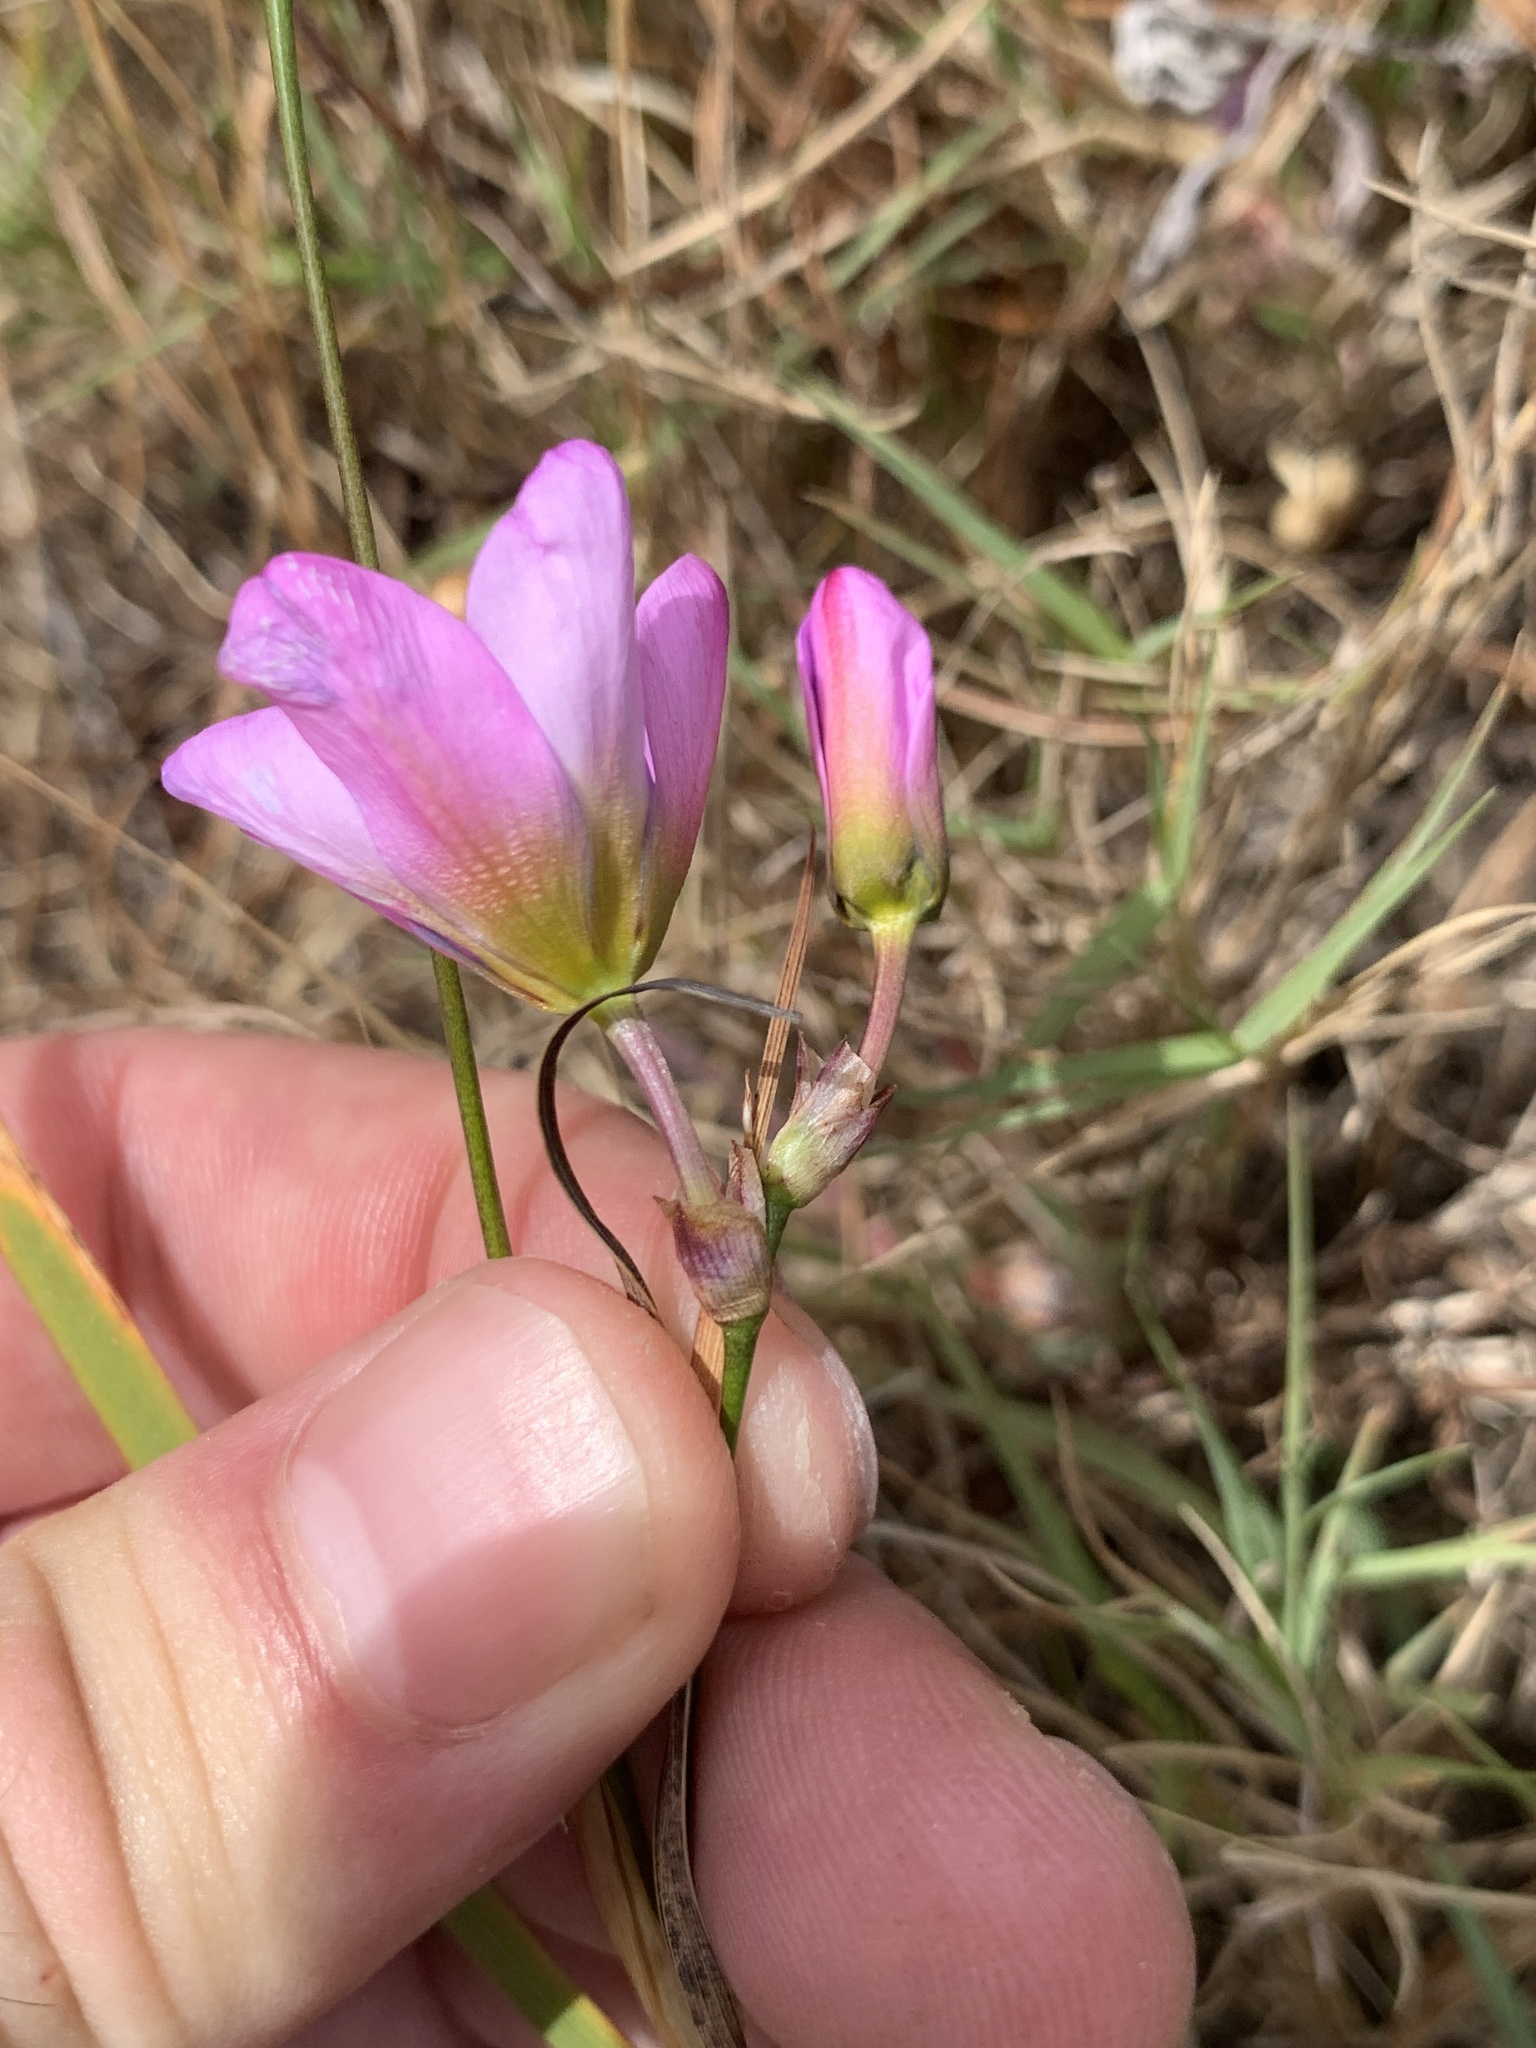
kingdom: Plantae
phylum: Tracheophyta
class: Liliopsida
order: Asparagales
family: Iridaceae
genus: Ixia
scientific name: Ixia monadelpha
